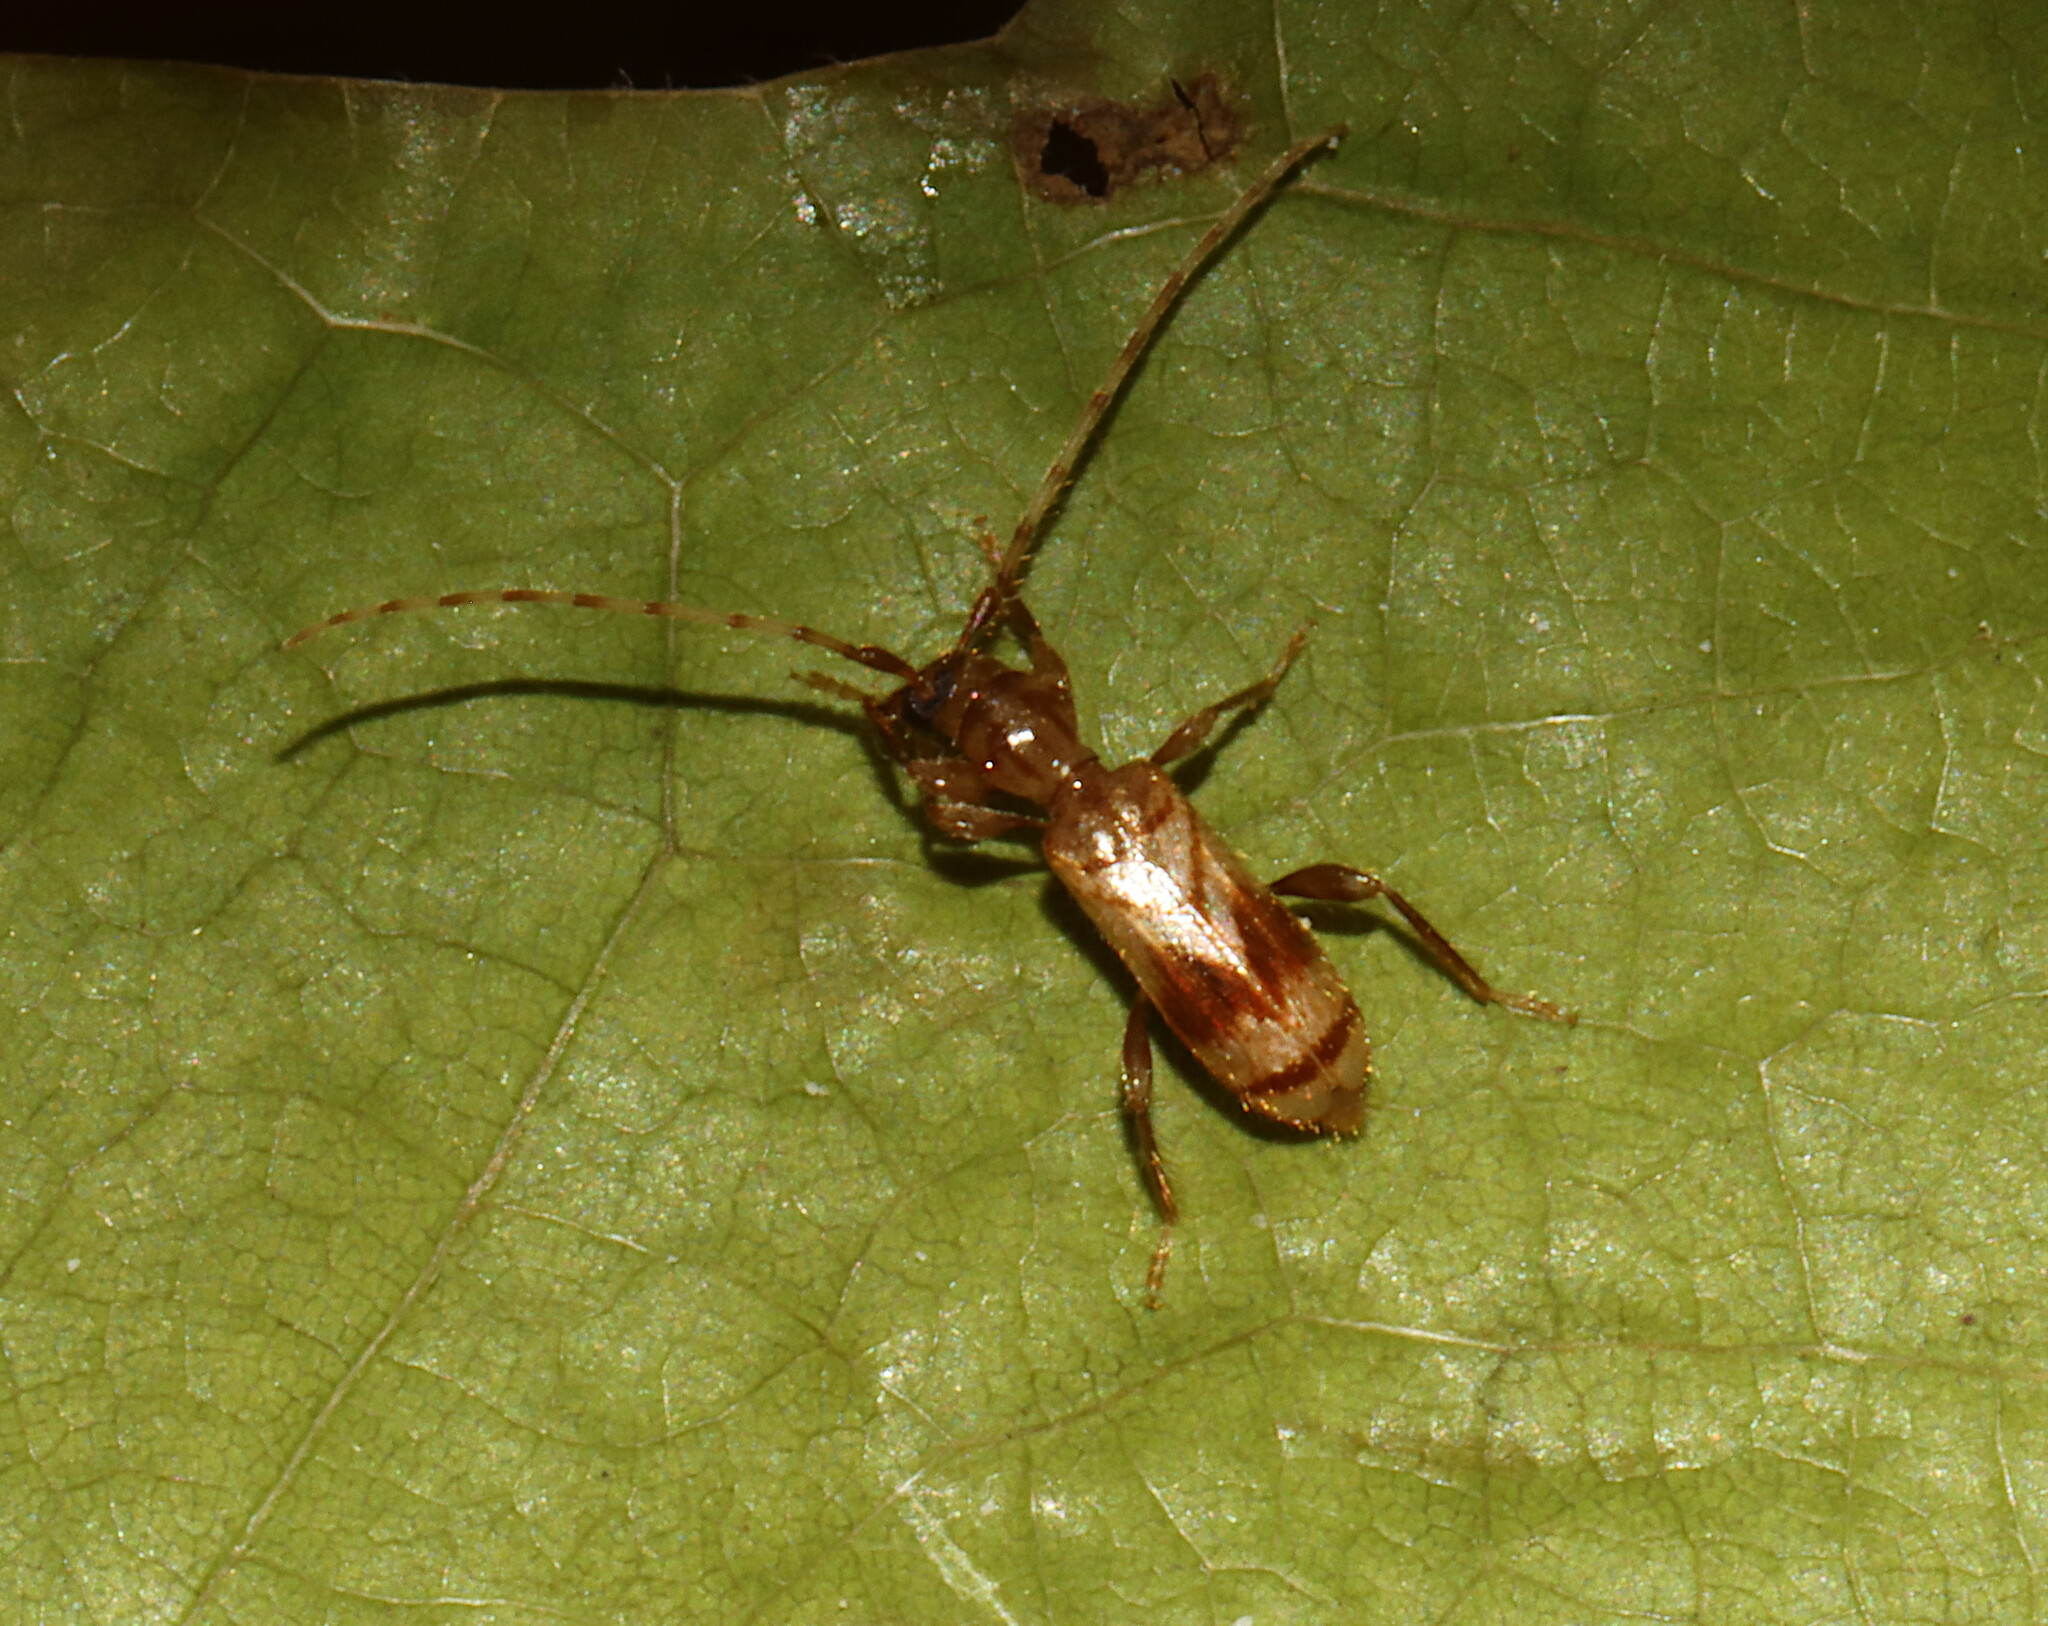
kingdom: Animalia
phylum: Arthropoda
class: Insecta
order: Coleoptera
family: Cerambycidae
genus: Obrium
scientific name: Obrium maculatum
